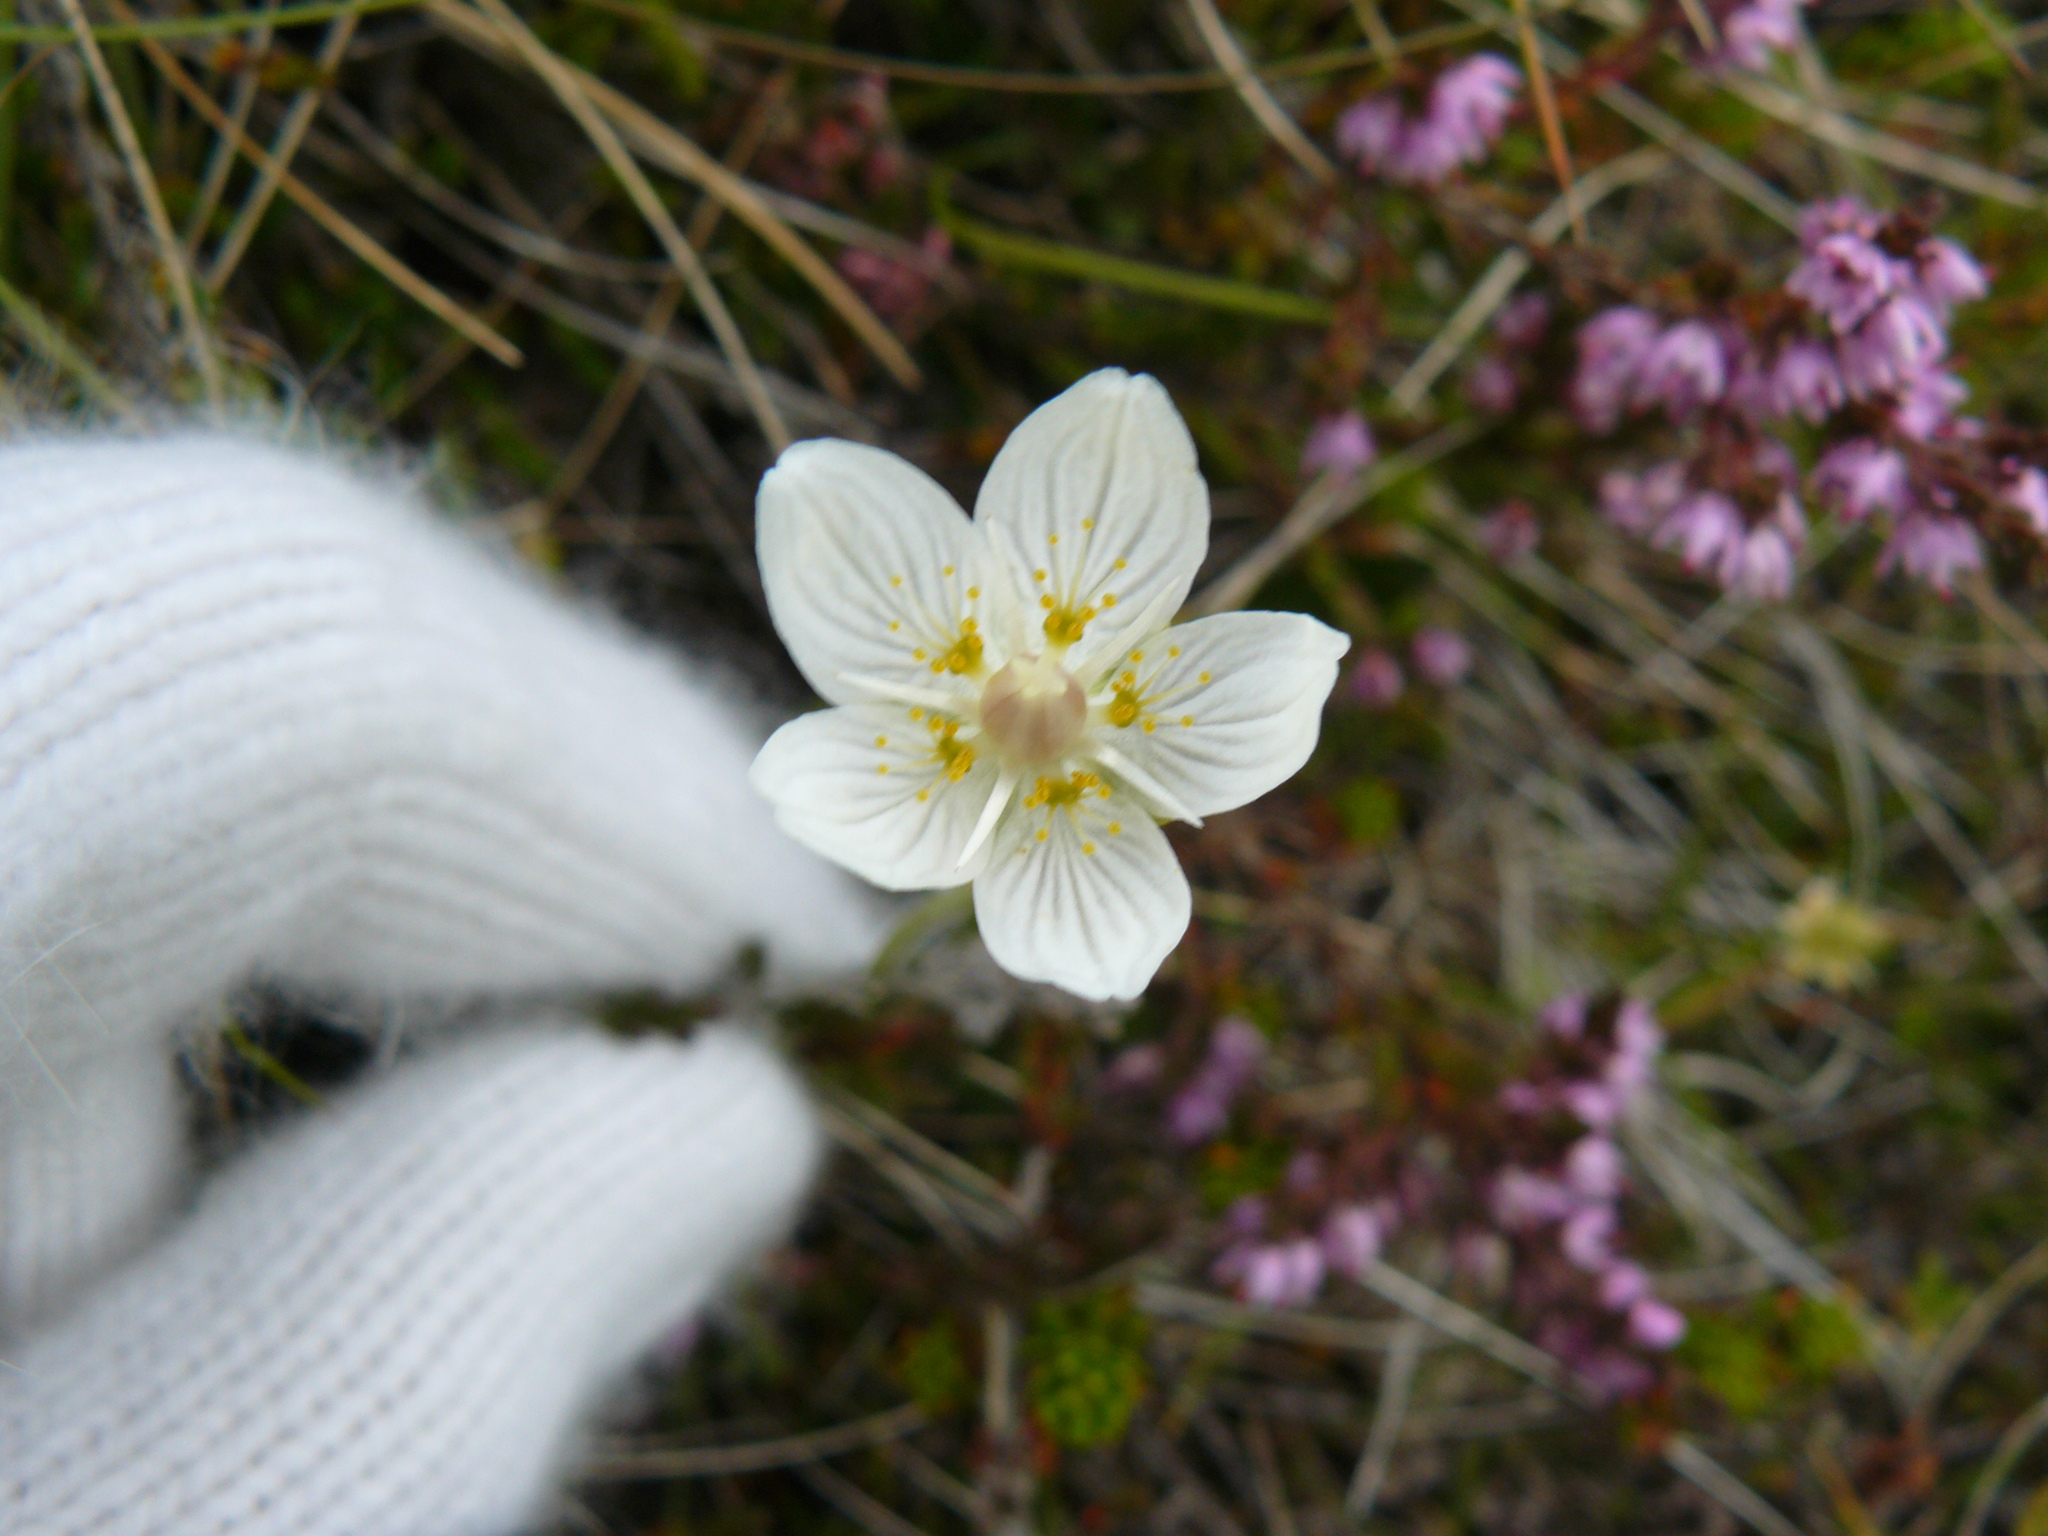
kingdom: Plantae
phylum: Tracheophyta
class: Magnoliopsida
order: Celastrales
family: Parnassiaceae
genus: Parnassia
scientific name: Parnassia palustris
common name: Grass-of-parnassus
